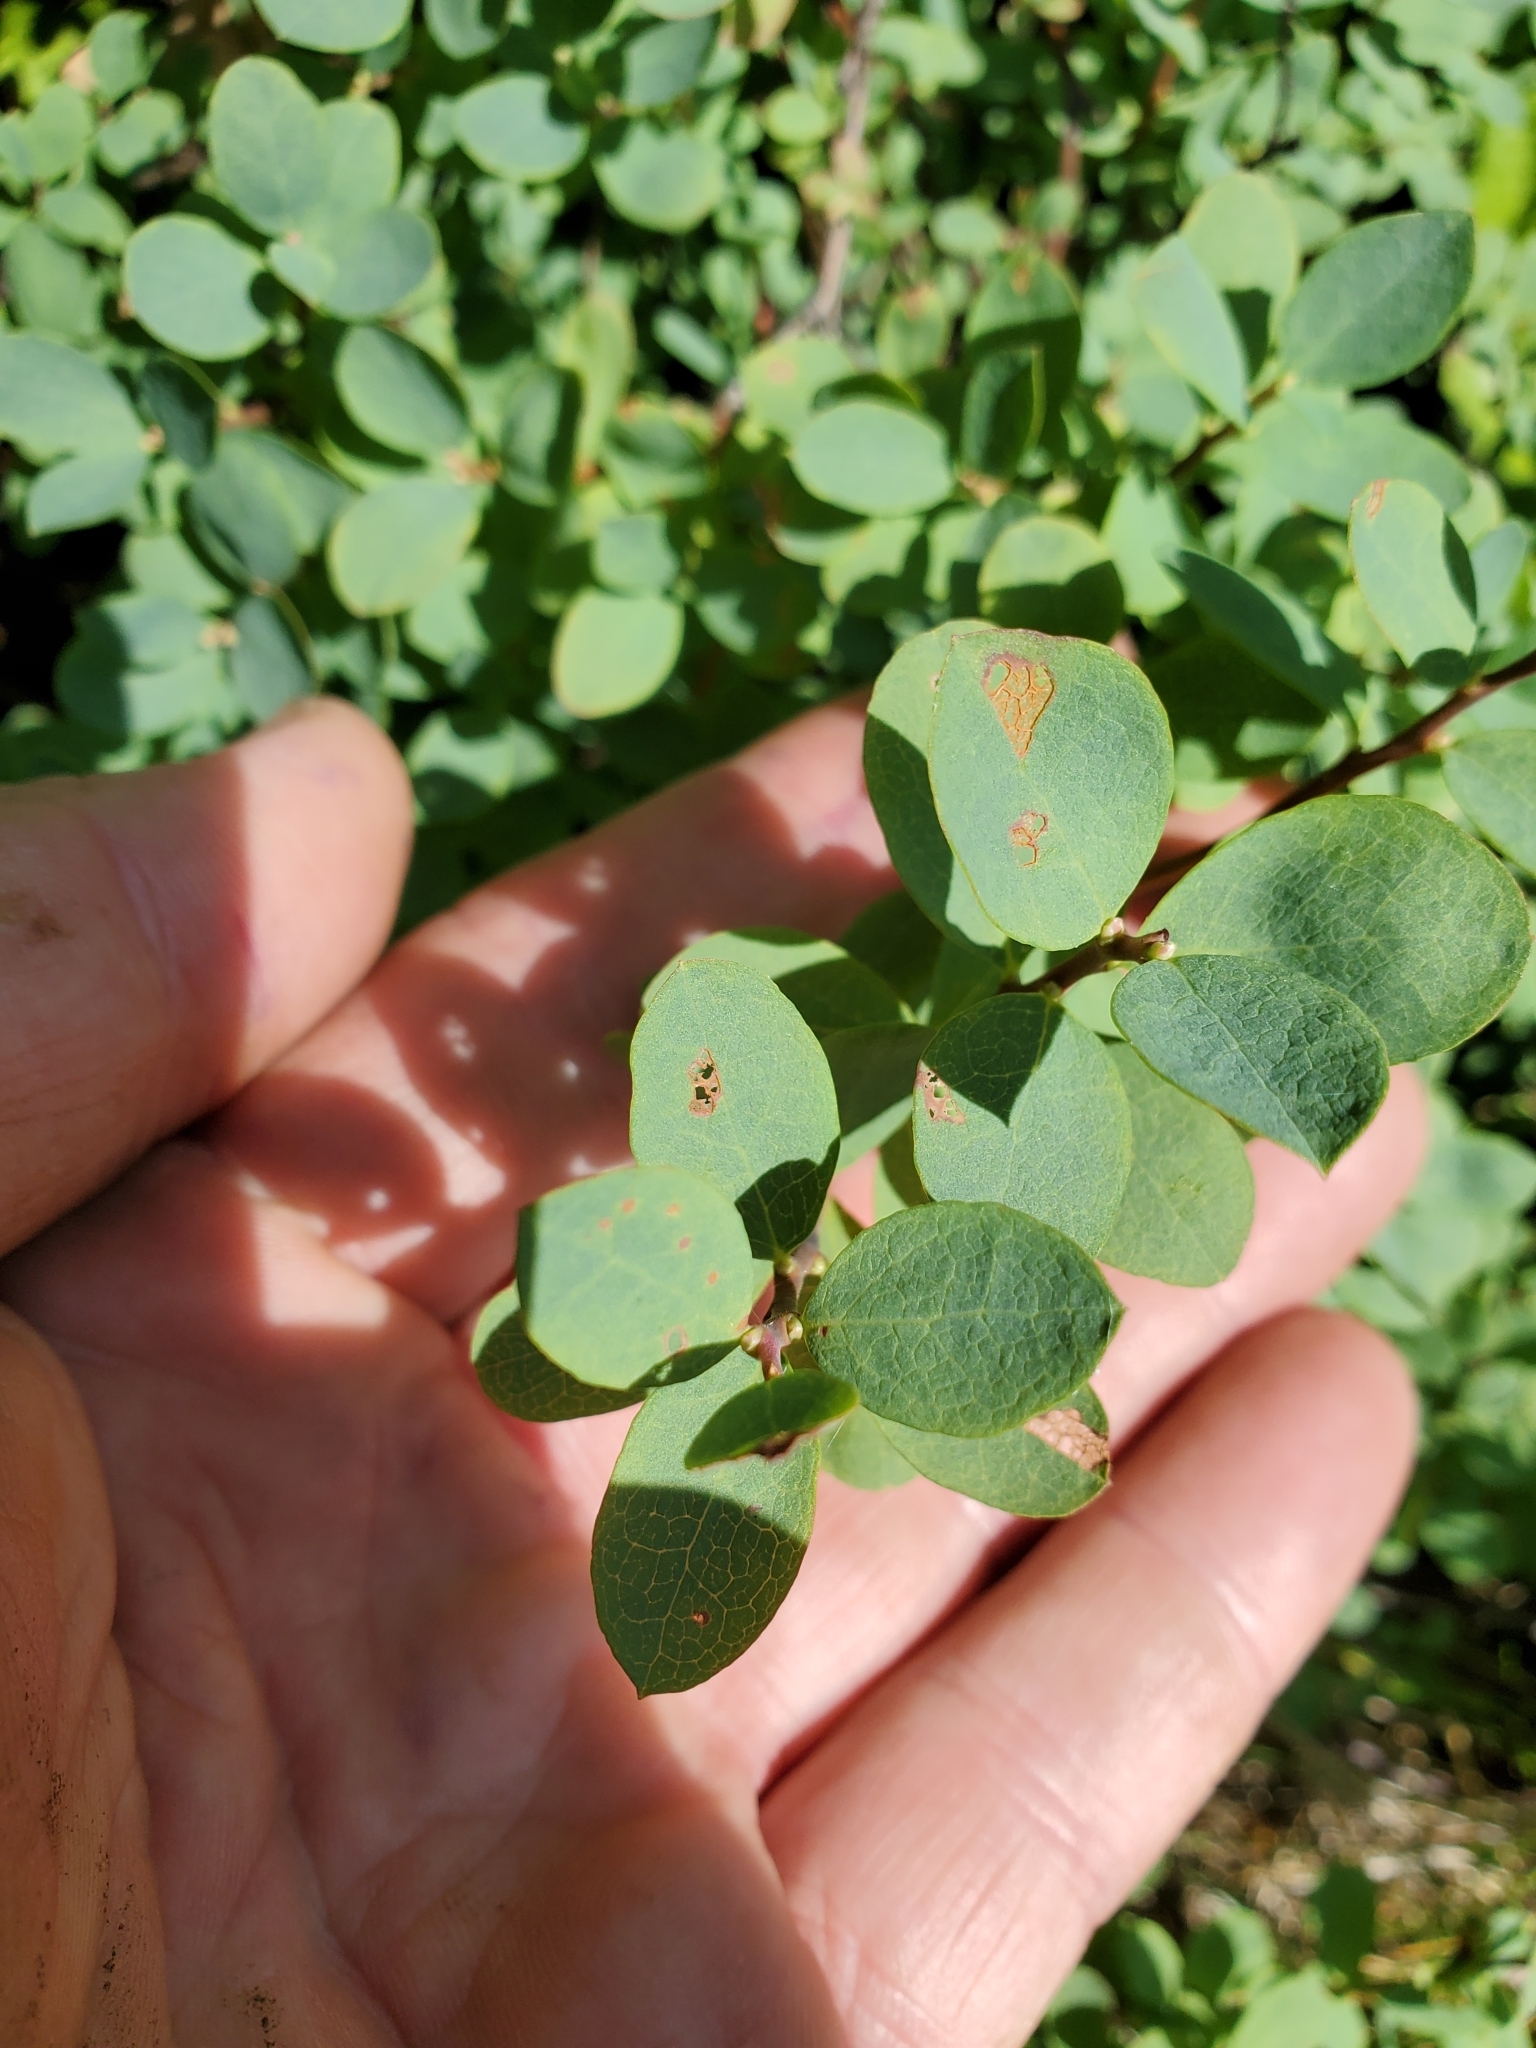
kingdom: Plantae
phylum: Tracheophyta
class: Magnoliopsida
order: Ericales
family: Ericaceae
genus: Vaccinium
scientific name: Vaccinium uliginosum
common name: Bog bilberry
